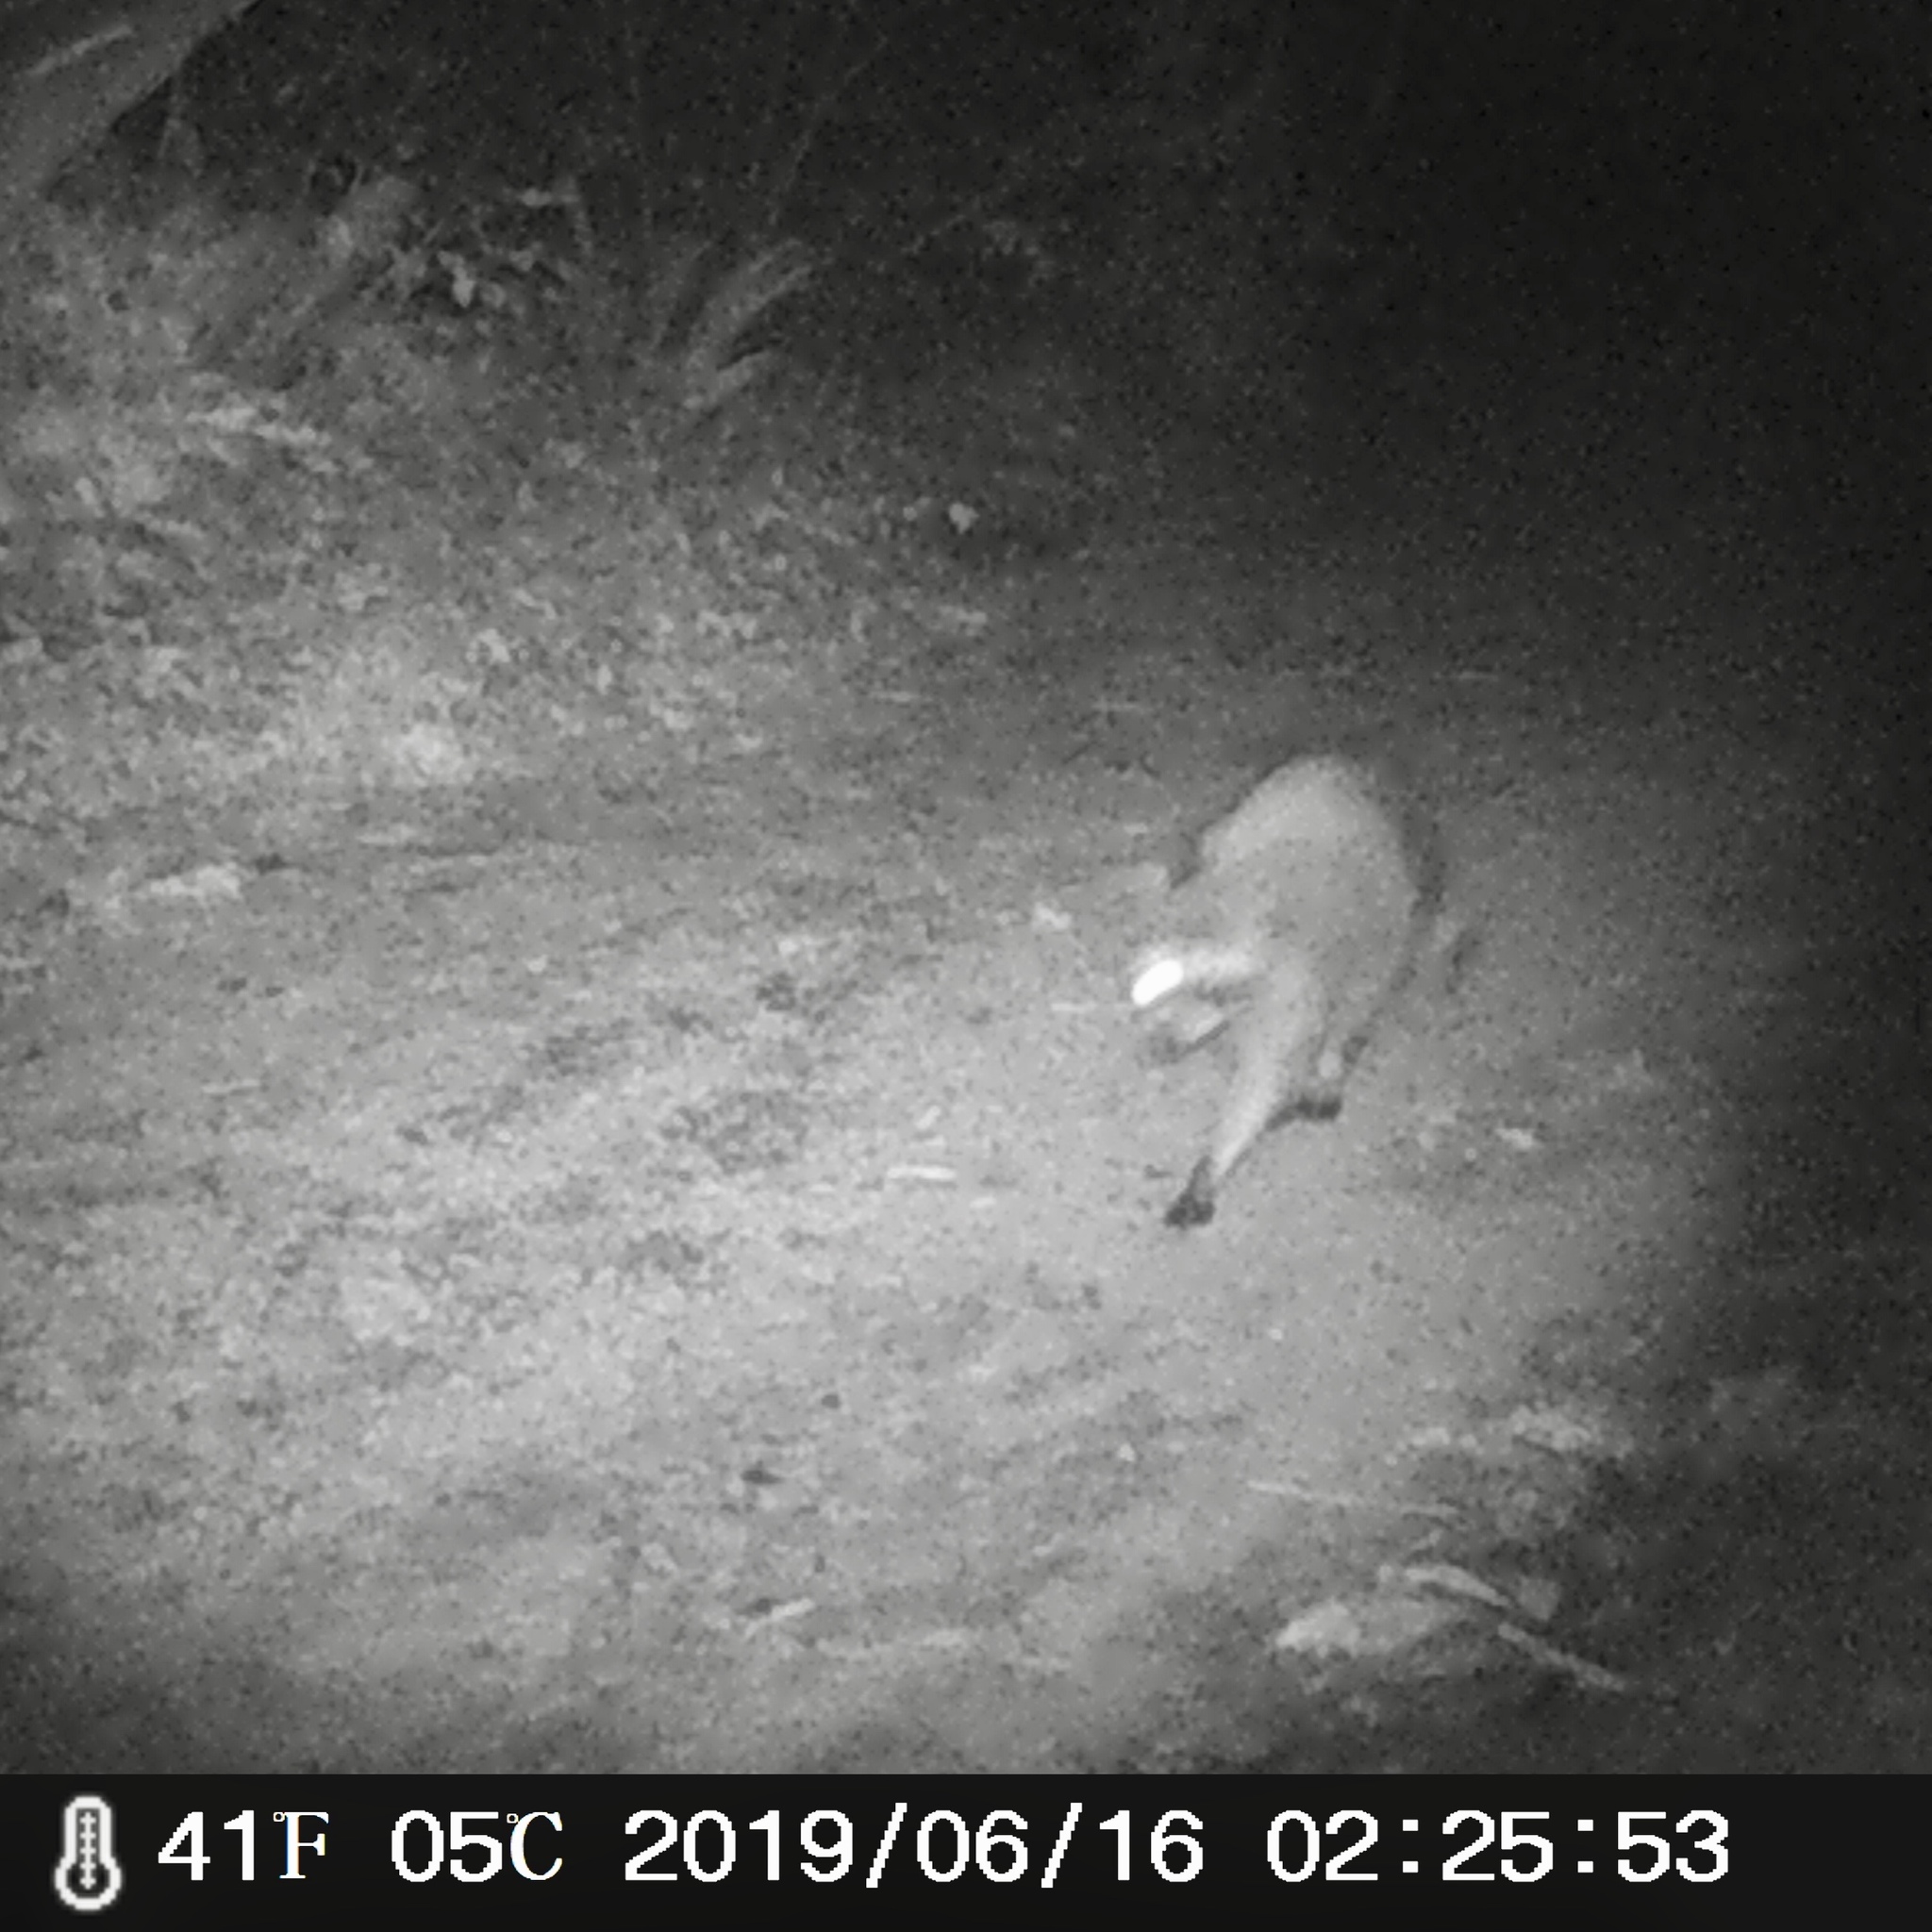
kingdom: Animalia
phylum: Chordata
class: Mammalia
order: Carnivora
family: Procyonidae
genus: Procyon
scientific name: Procyon lotor
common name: Raccoon
